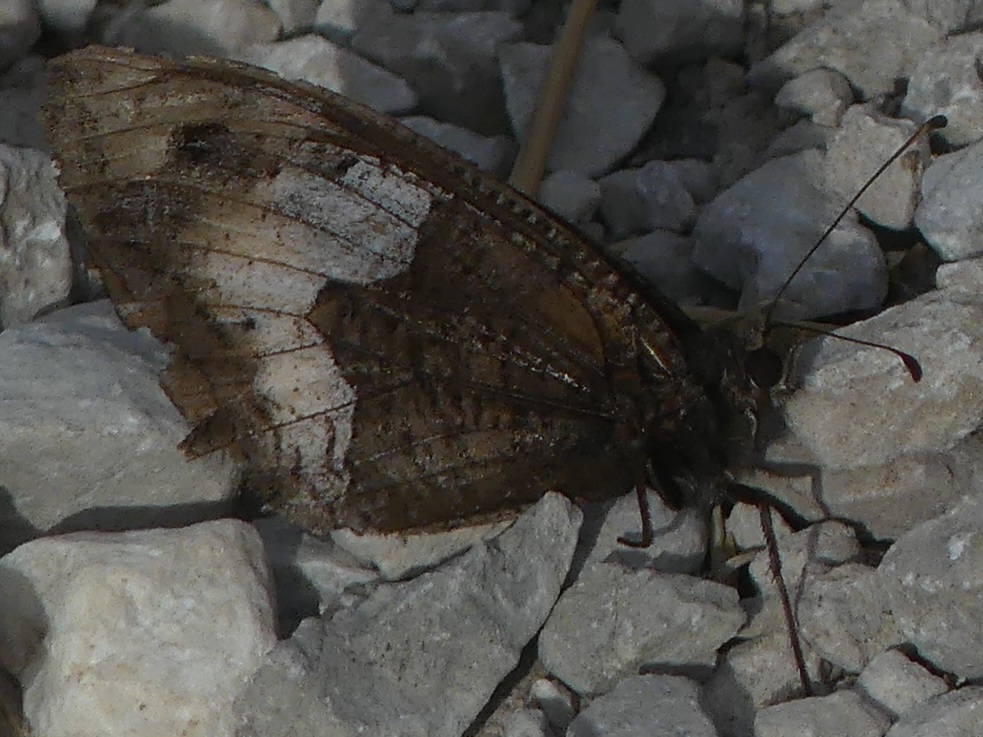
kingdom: Animalia
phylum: Arthropoda
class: Insecta
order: Lepidoptera
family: Nymphalidae
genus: Hipparchia
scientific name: Hipparchia hermione
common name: Rock grayling
